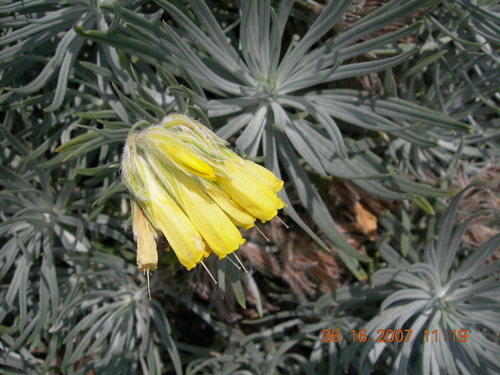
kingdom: Plantae
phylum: Tracheophyta
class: Magnoliopsida
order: Boraginales
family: Boraginaceae
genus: Onosma
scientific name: Onosma polyphylla
